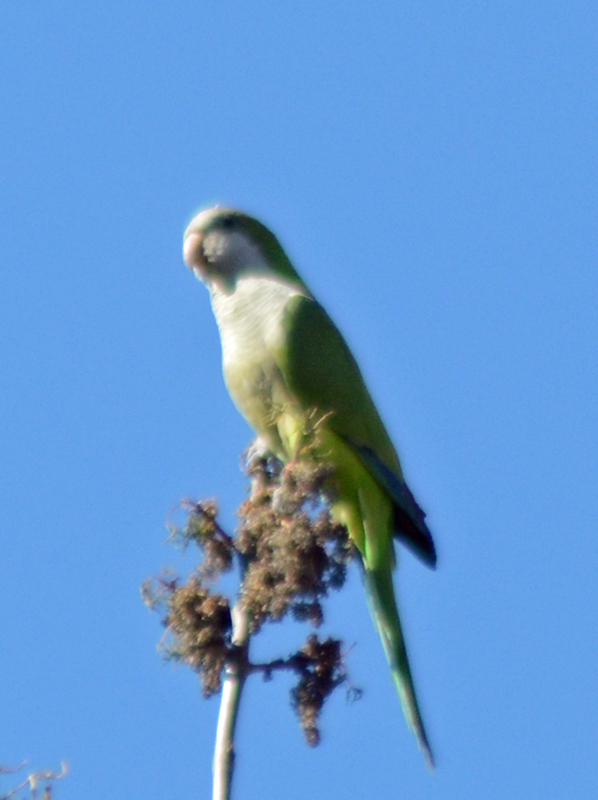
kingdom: Animalia
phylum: Chordata
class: Aves
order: Psittaciformes
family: Psittacidae
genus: Myiopsitta
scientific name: Myiopsitta monachus
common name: Monk parakeet
